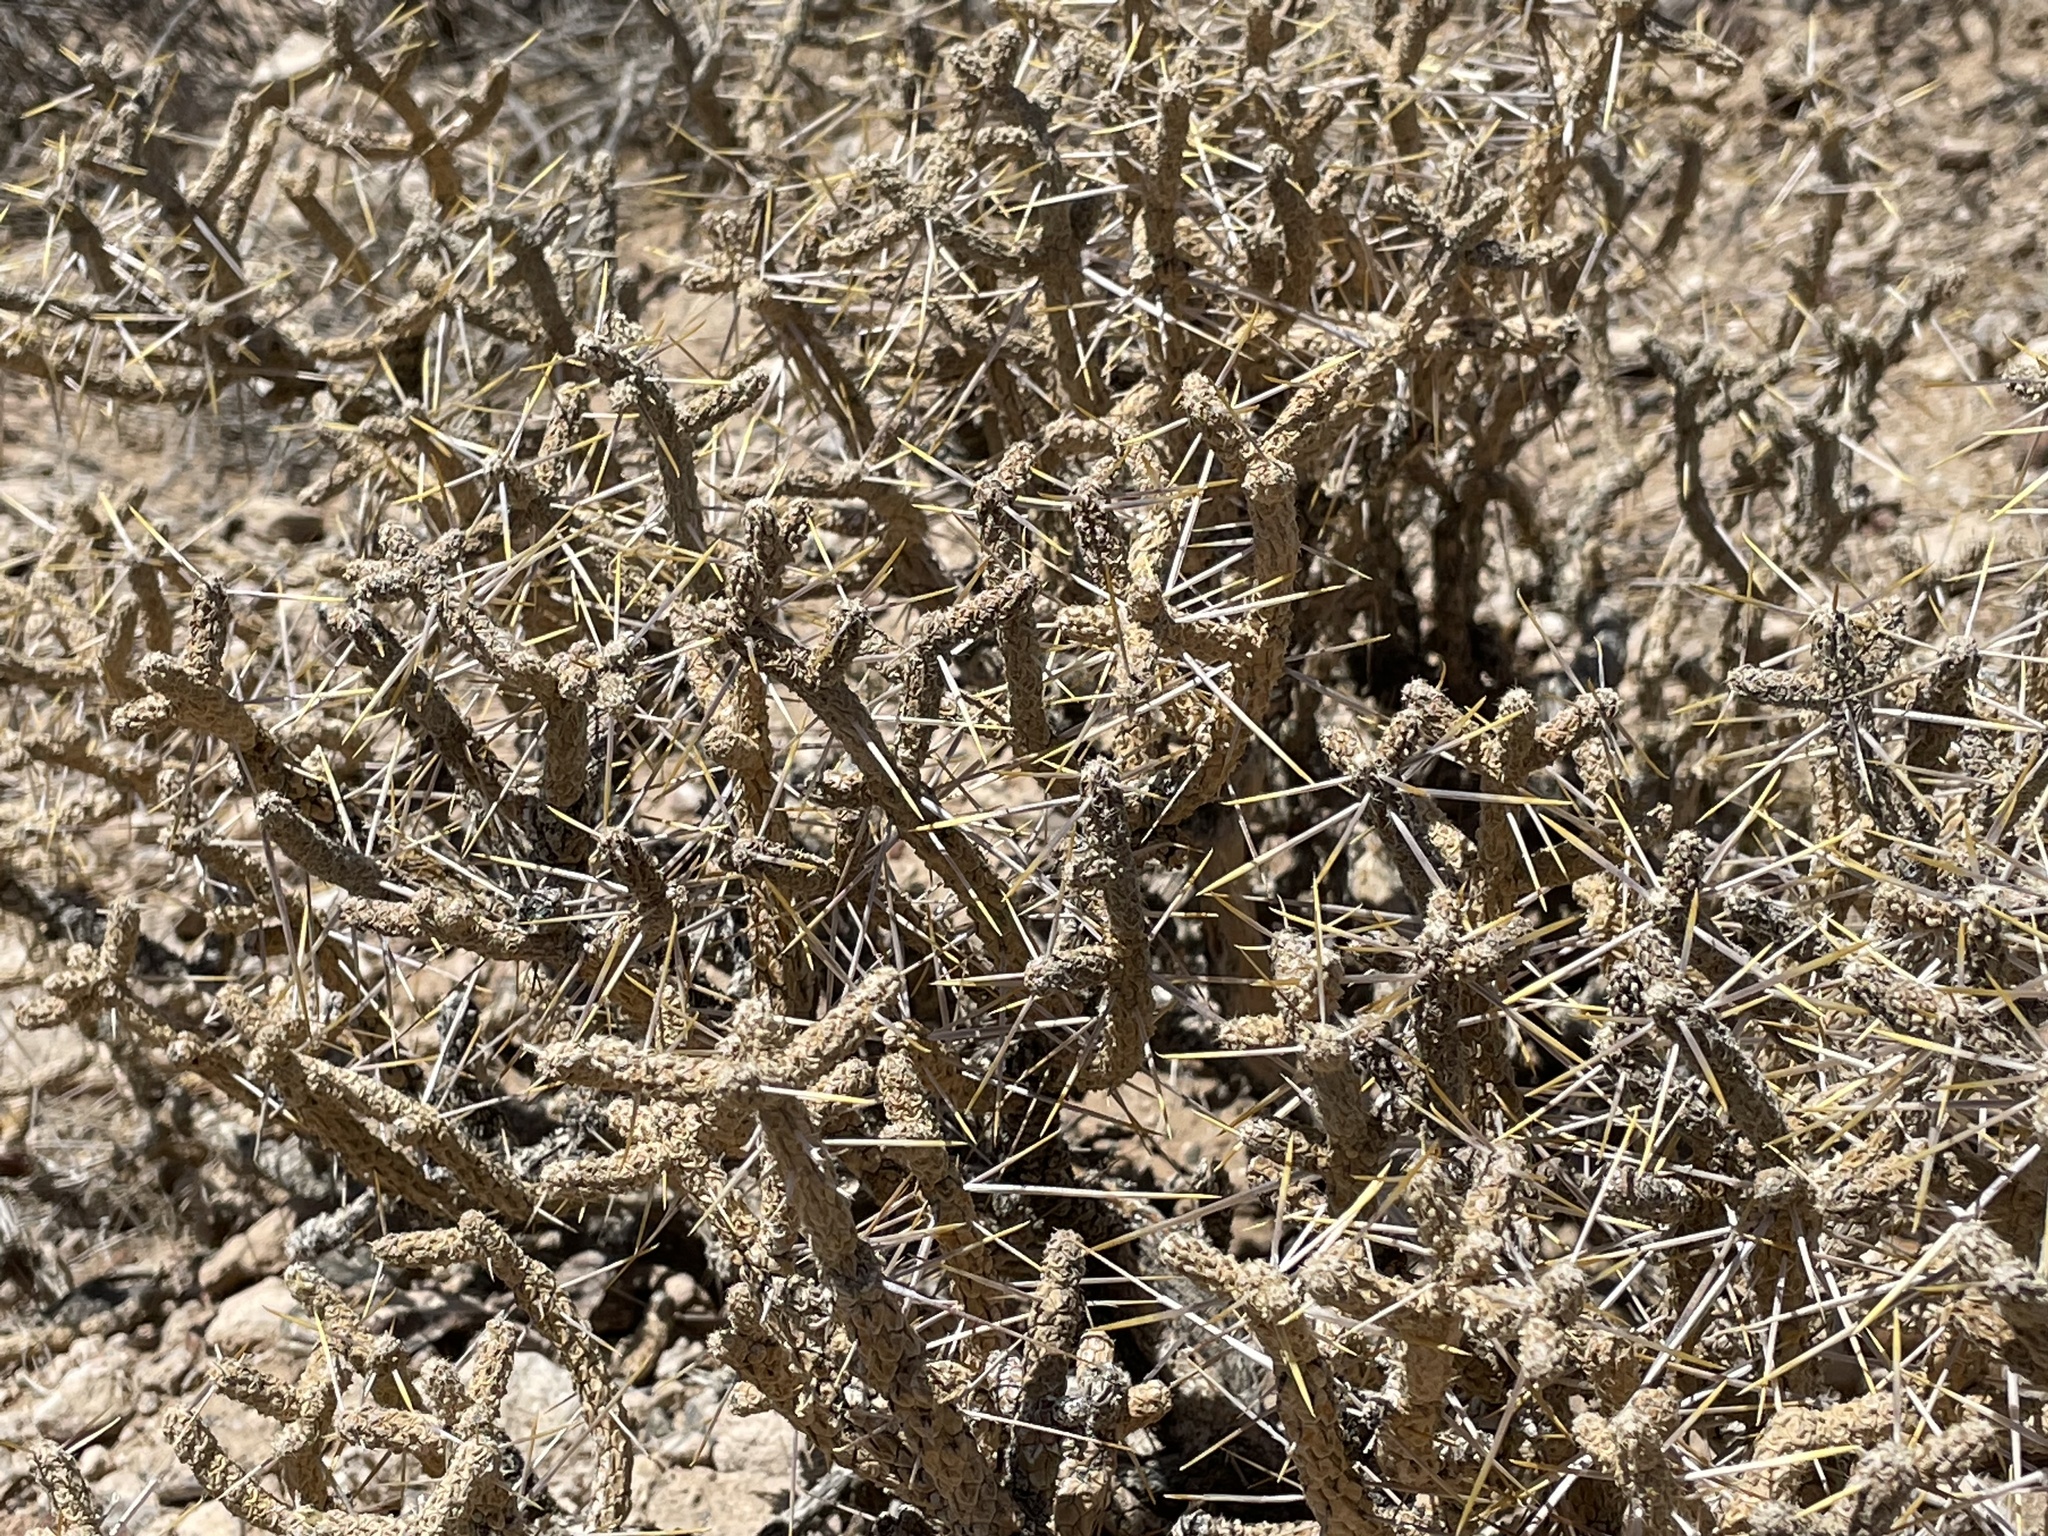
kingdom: Plantae
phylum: Tracheophyta
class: Magnoliopsida
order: Caryophyllales
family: Cactaceae
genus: Cylindropuntia
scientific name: Cylindropuntia ramosissima
